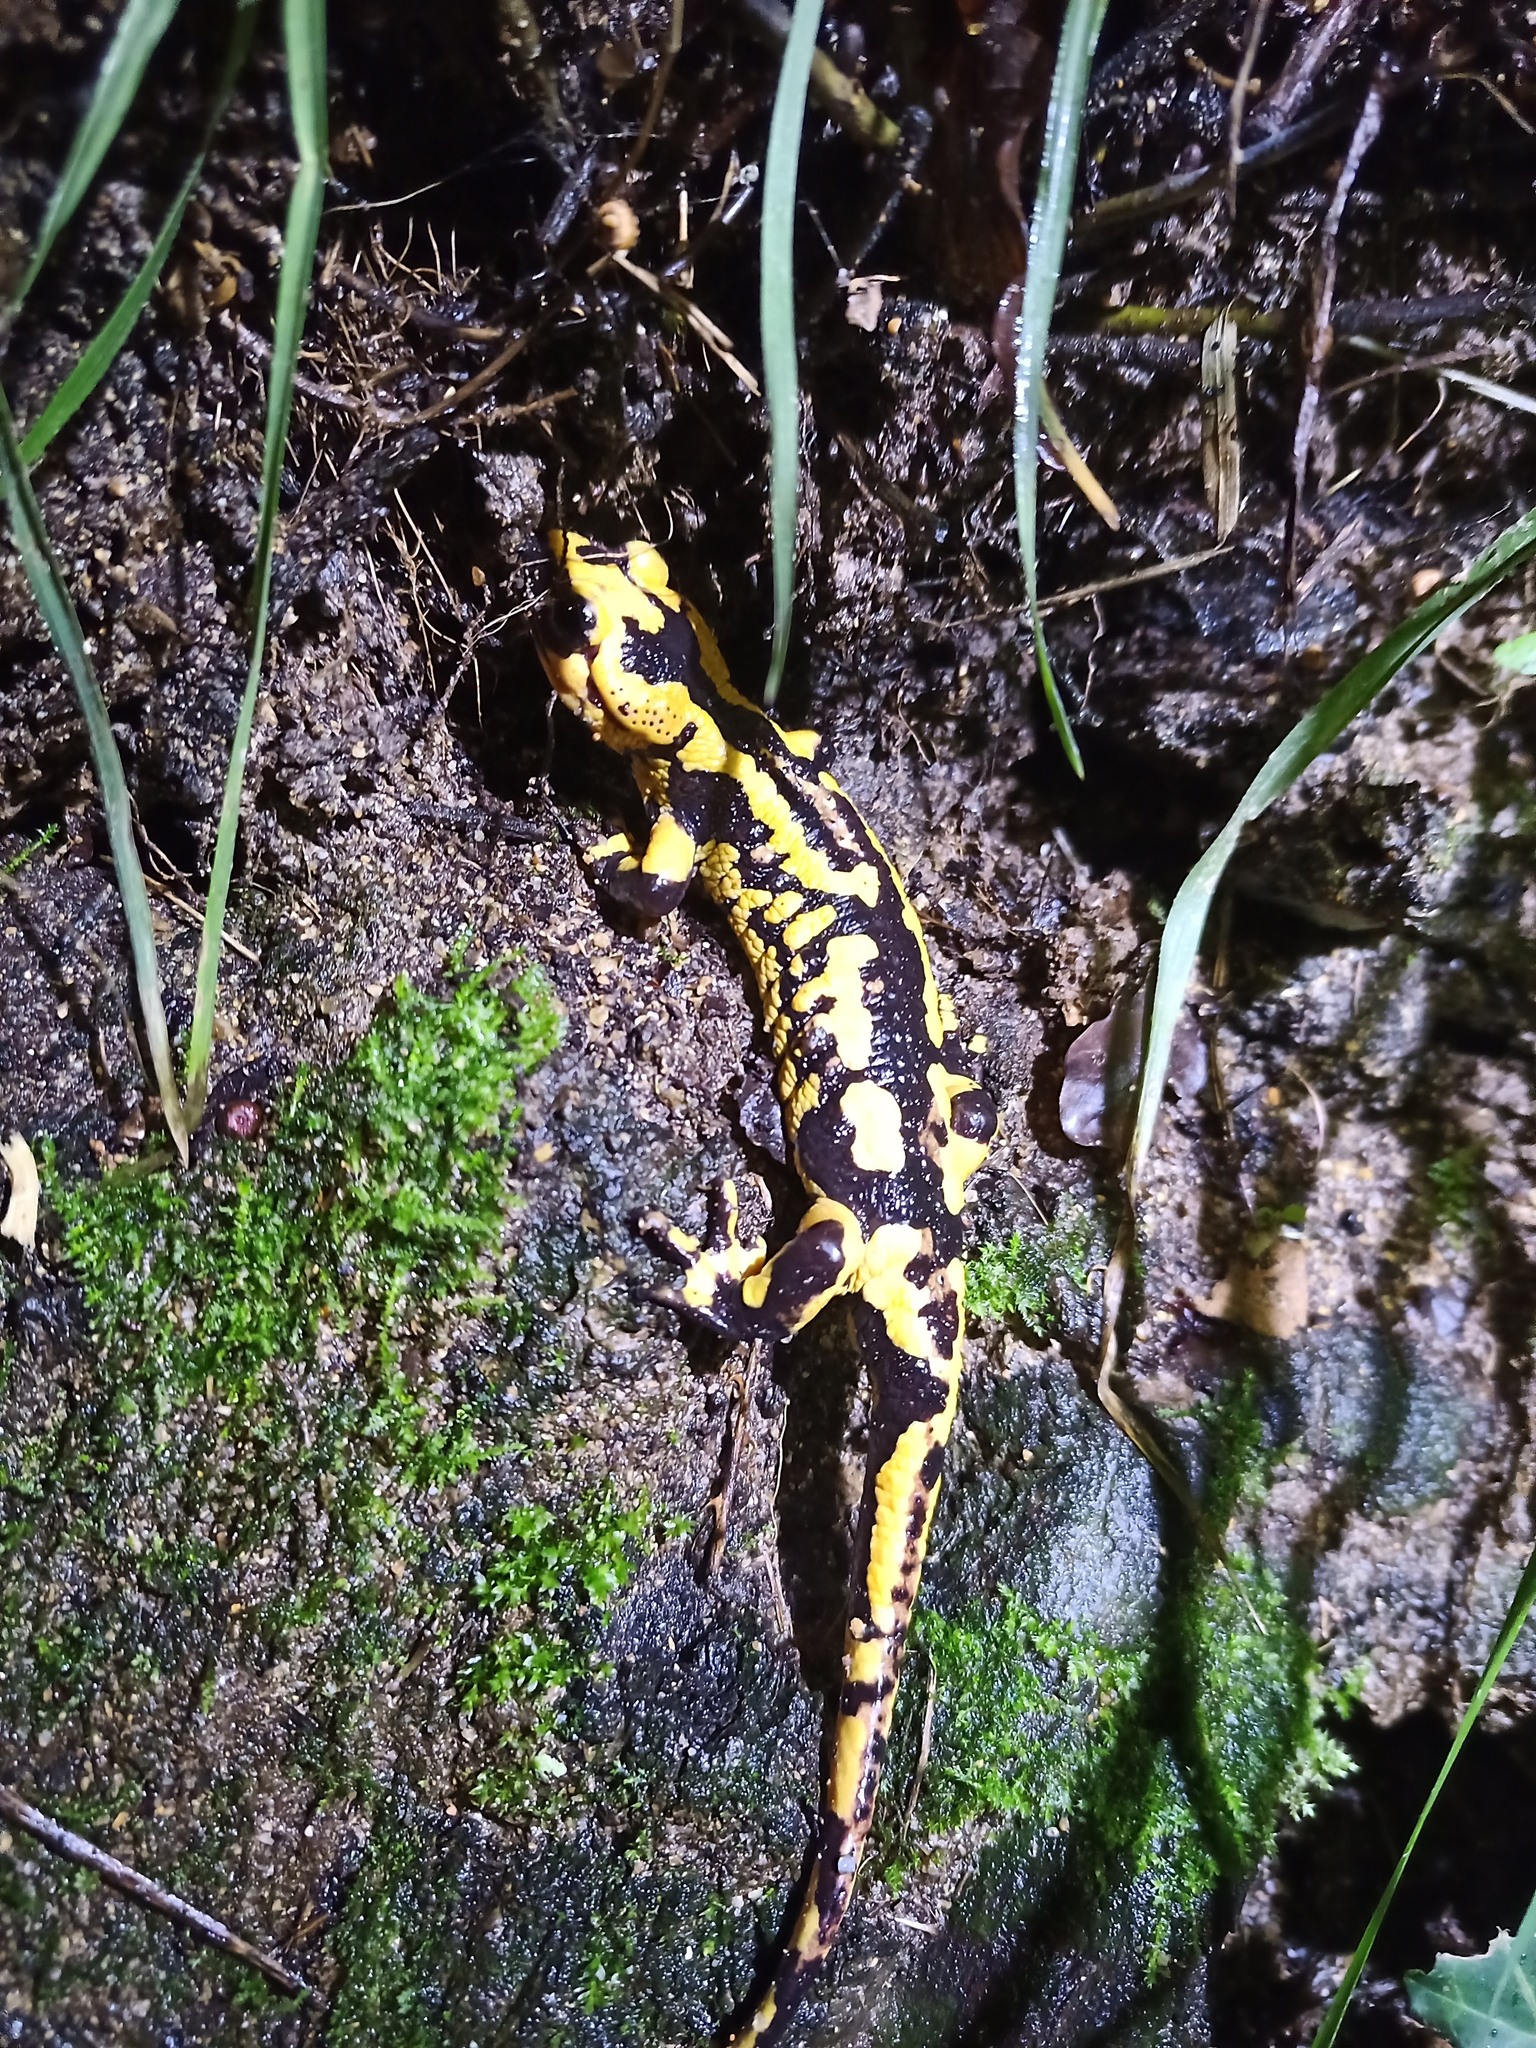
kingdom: Animalia
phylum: Chordata
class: Amphibia
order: Caudata
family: Salamandridae
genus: Salamandra
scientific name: Salamandra salamandra
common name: Fire salamander
